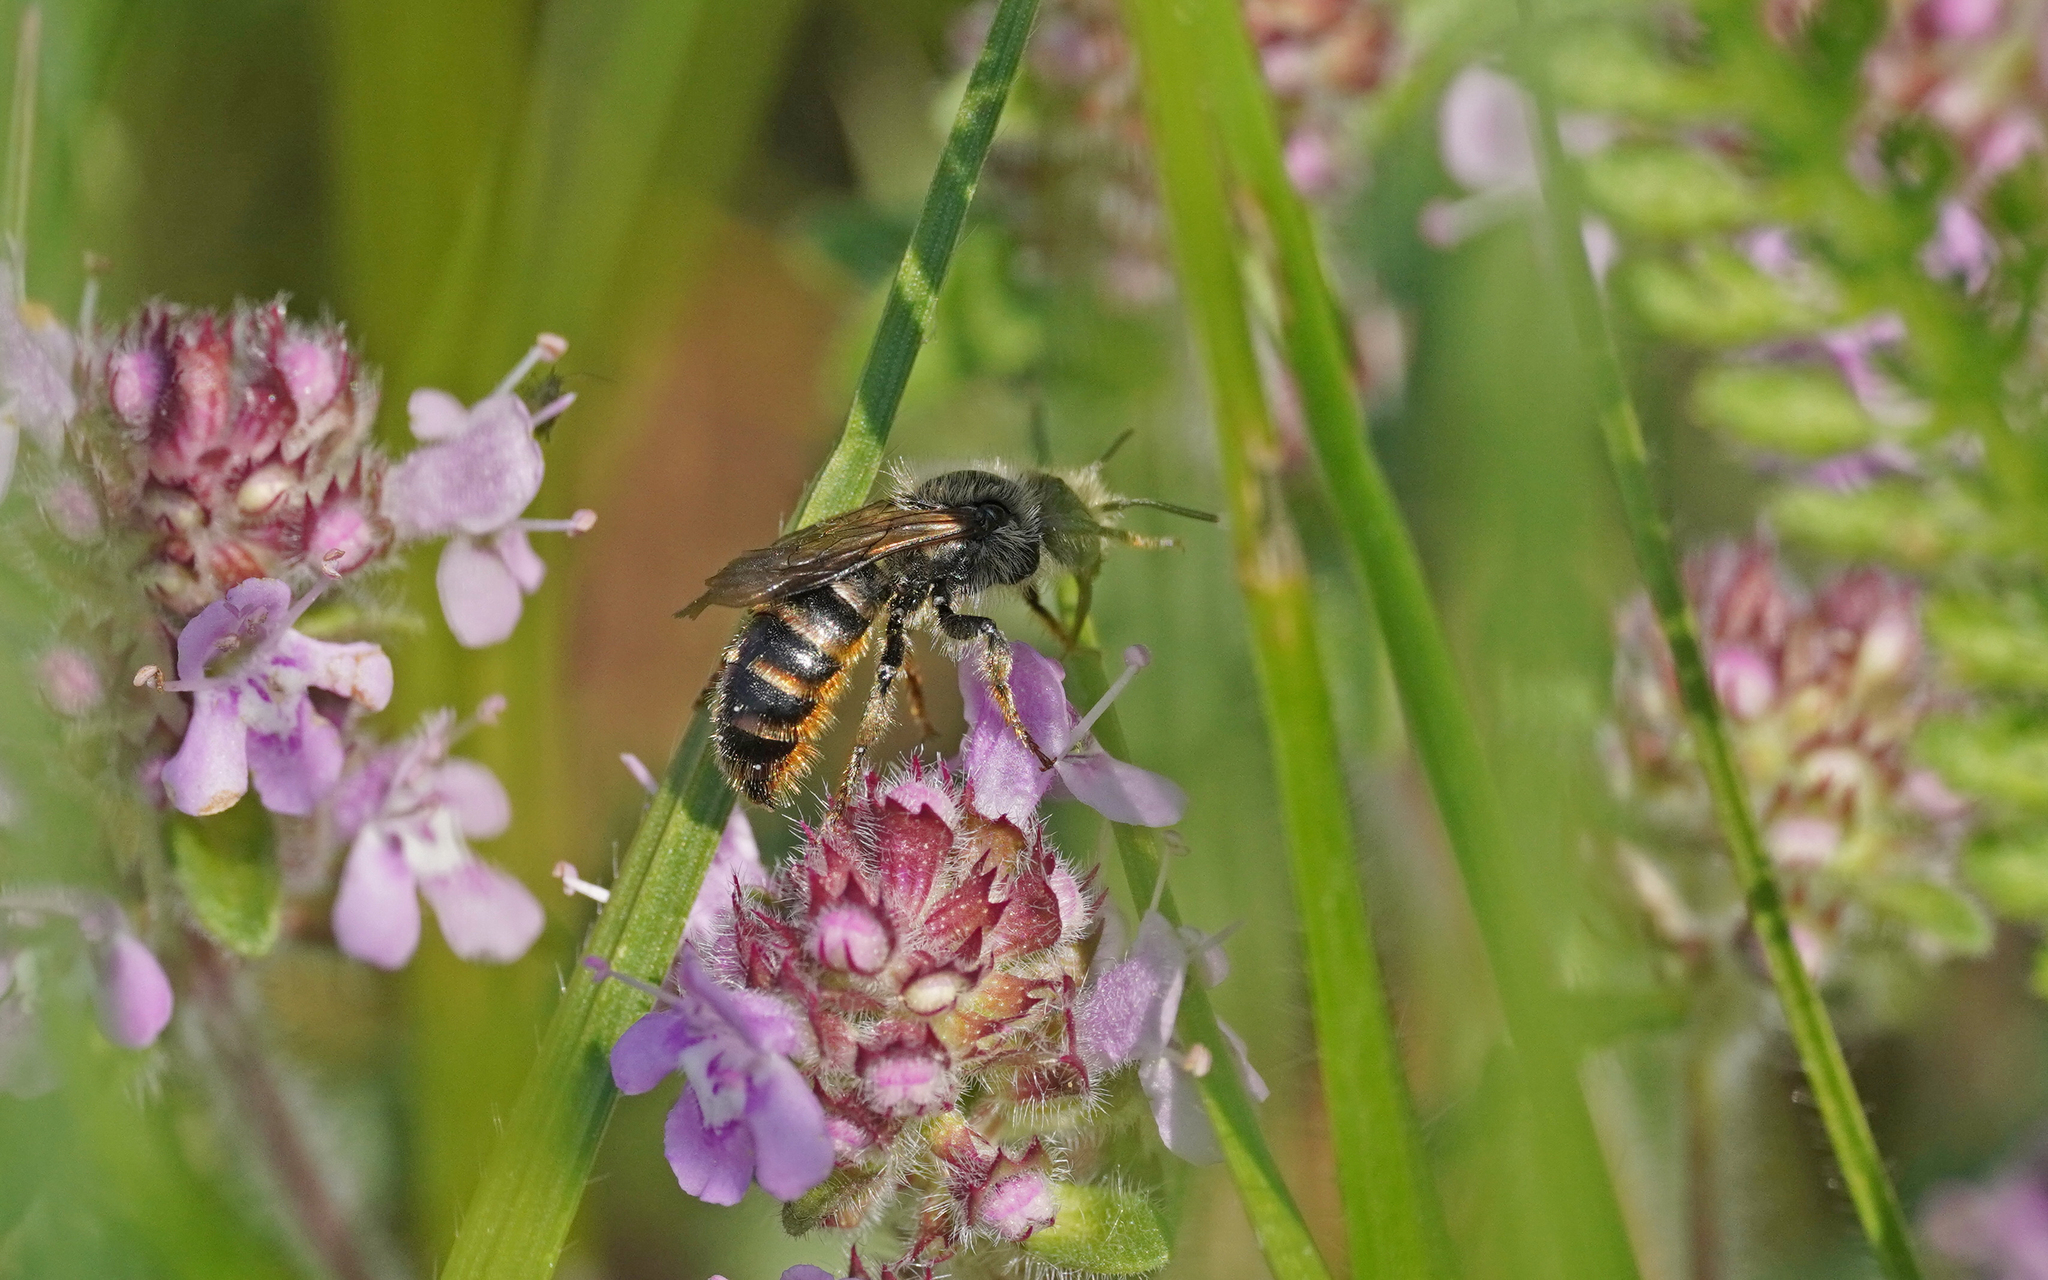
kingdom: Animalia
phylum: Arthropoda
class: Insecta
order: Hymenoptera
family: Megachilidae
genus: Osmia
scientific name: Osmia rufohirta
